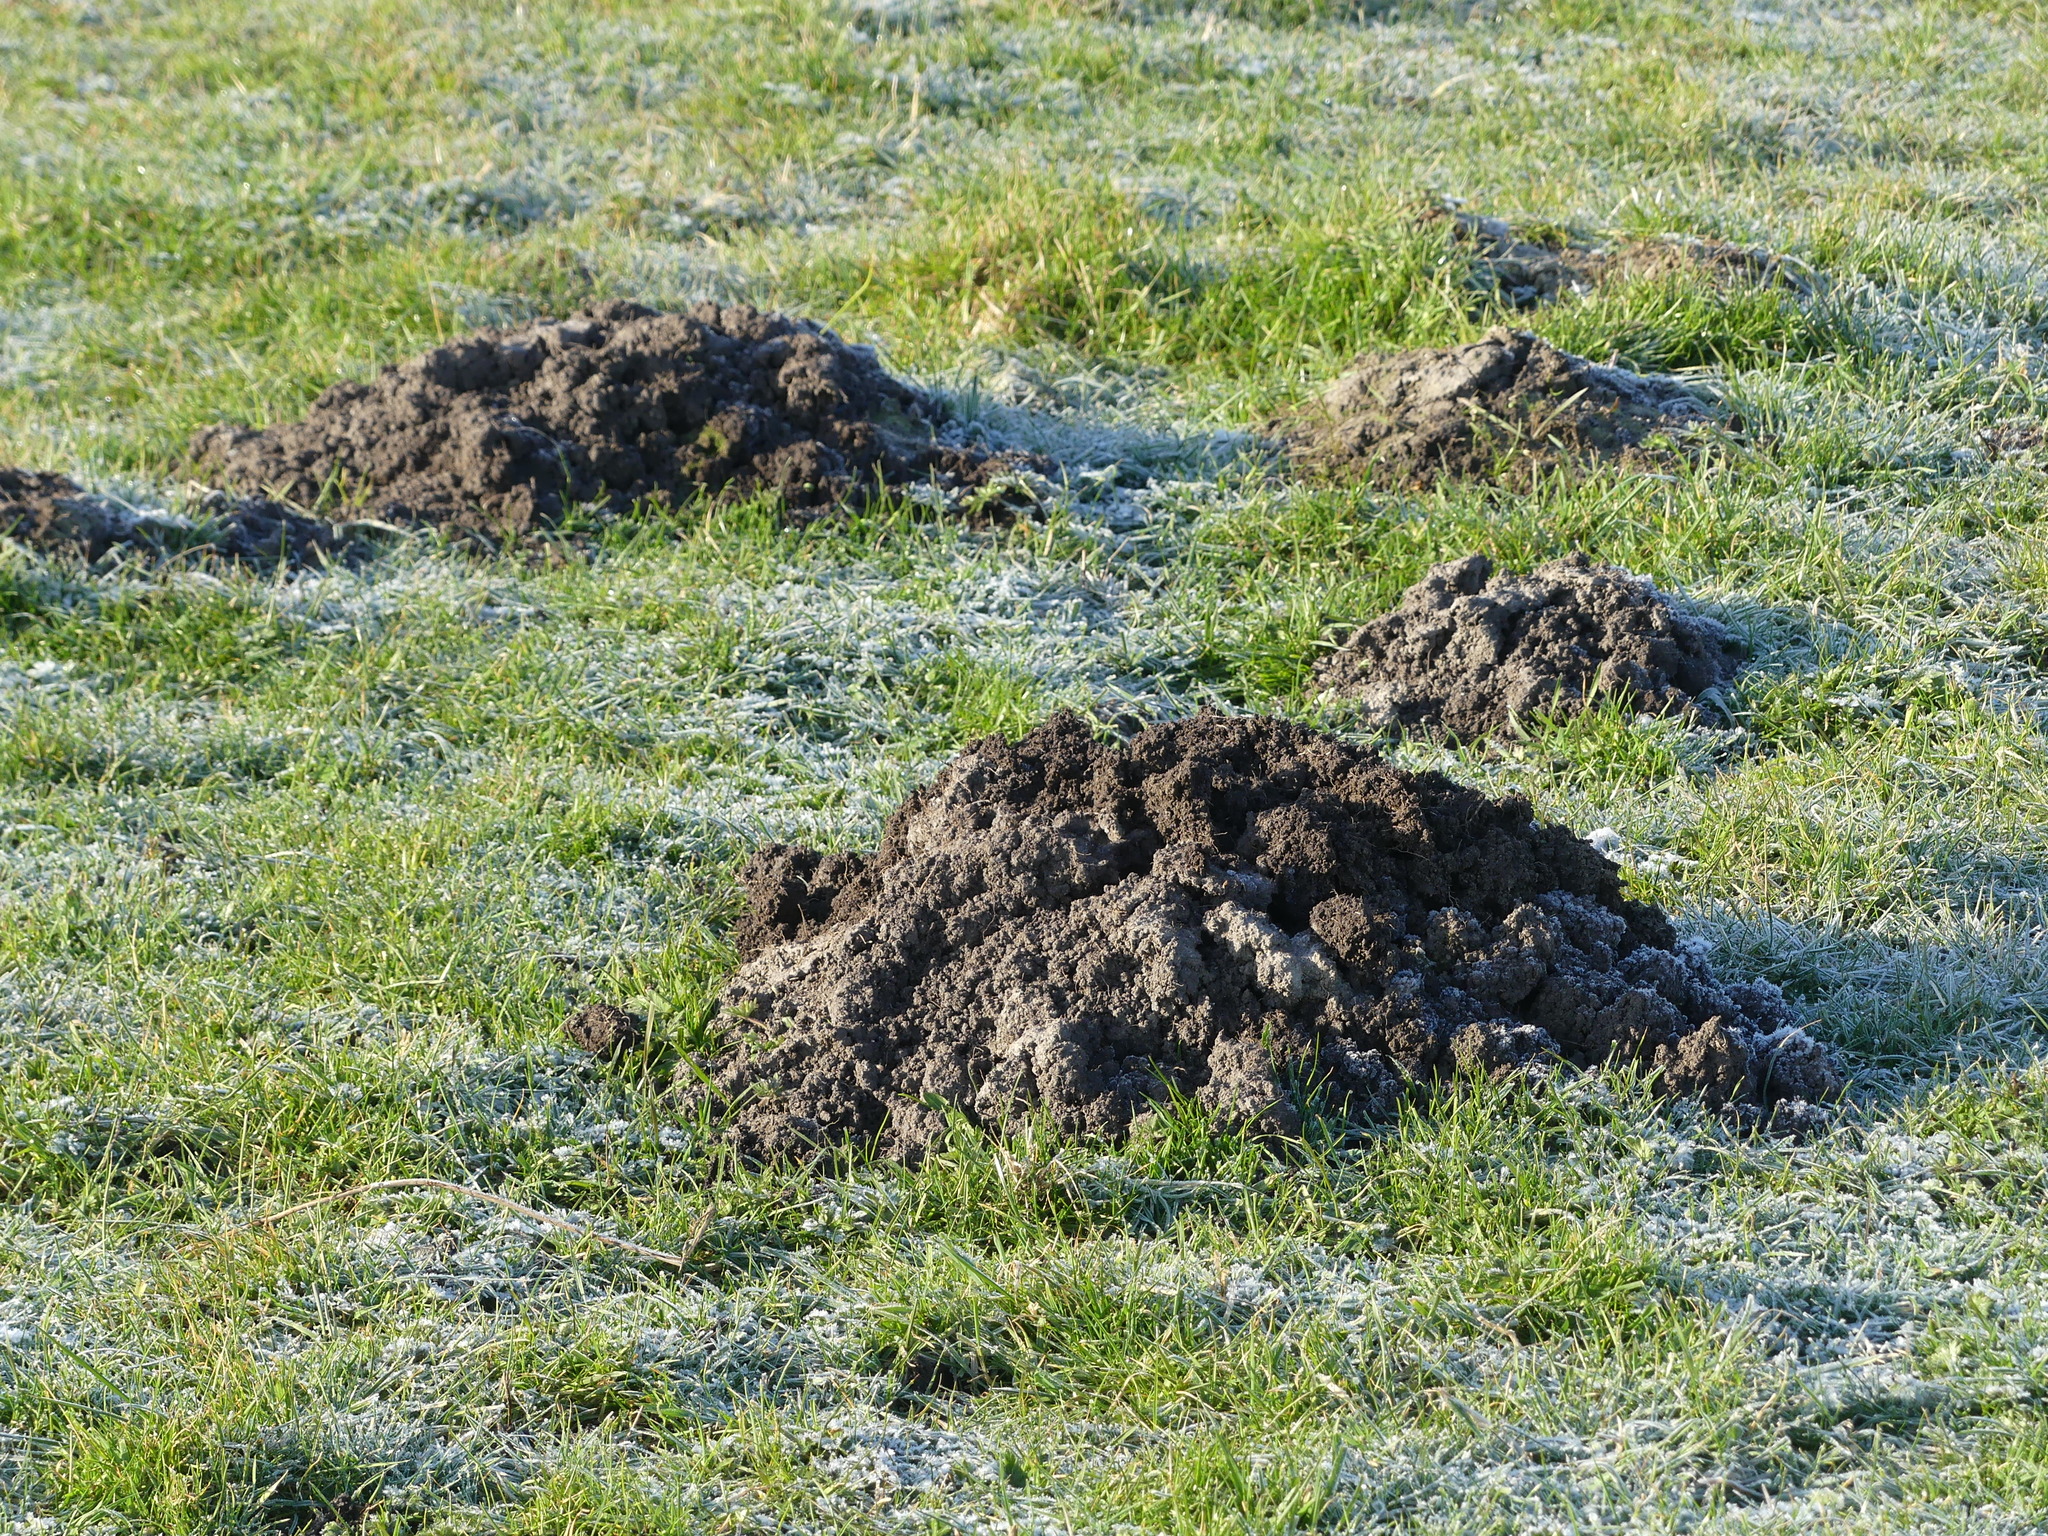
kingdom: Animalia
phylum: Chordata
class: Mammalia
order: Soricomorpha
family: Talpidae
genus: Talpa
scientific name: Talpa europaea
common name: European mole
